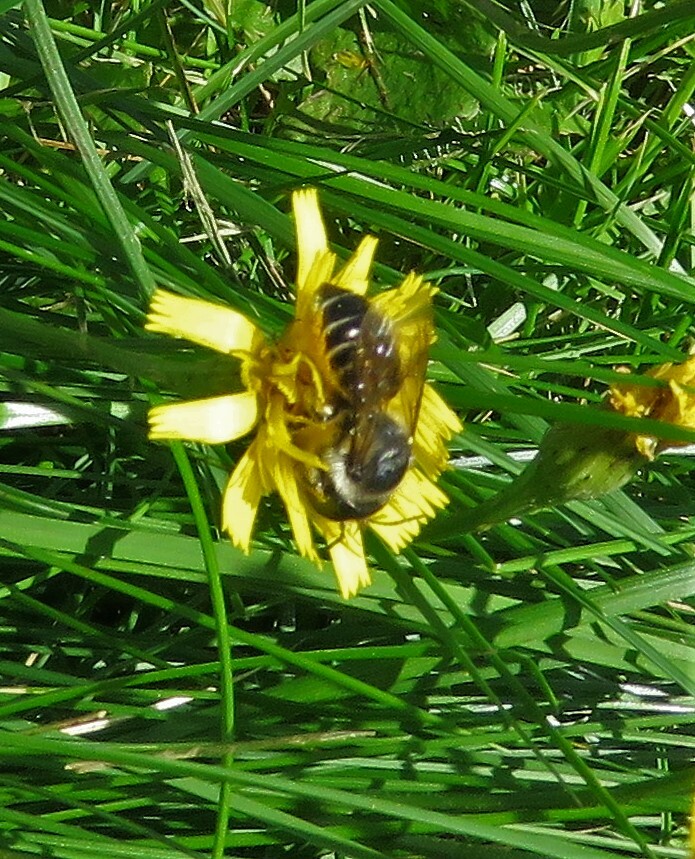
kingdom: Animalia
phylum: Arthropoda
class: Insecta
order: Hymenoptera
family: Megachilidae
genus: Megachile
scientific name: Megachile inermis
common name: Unarmed leafcutter bee
